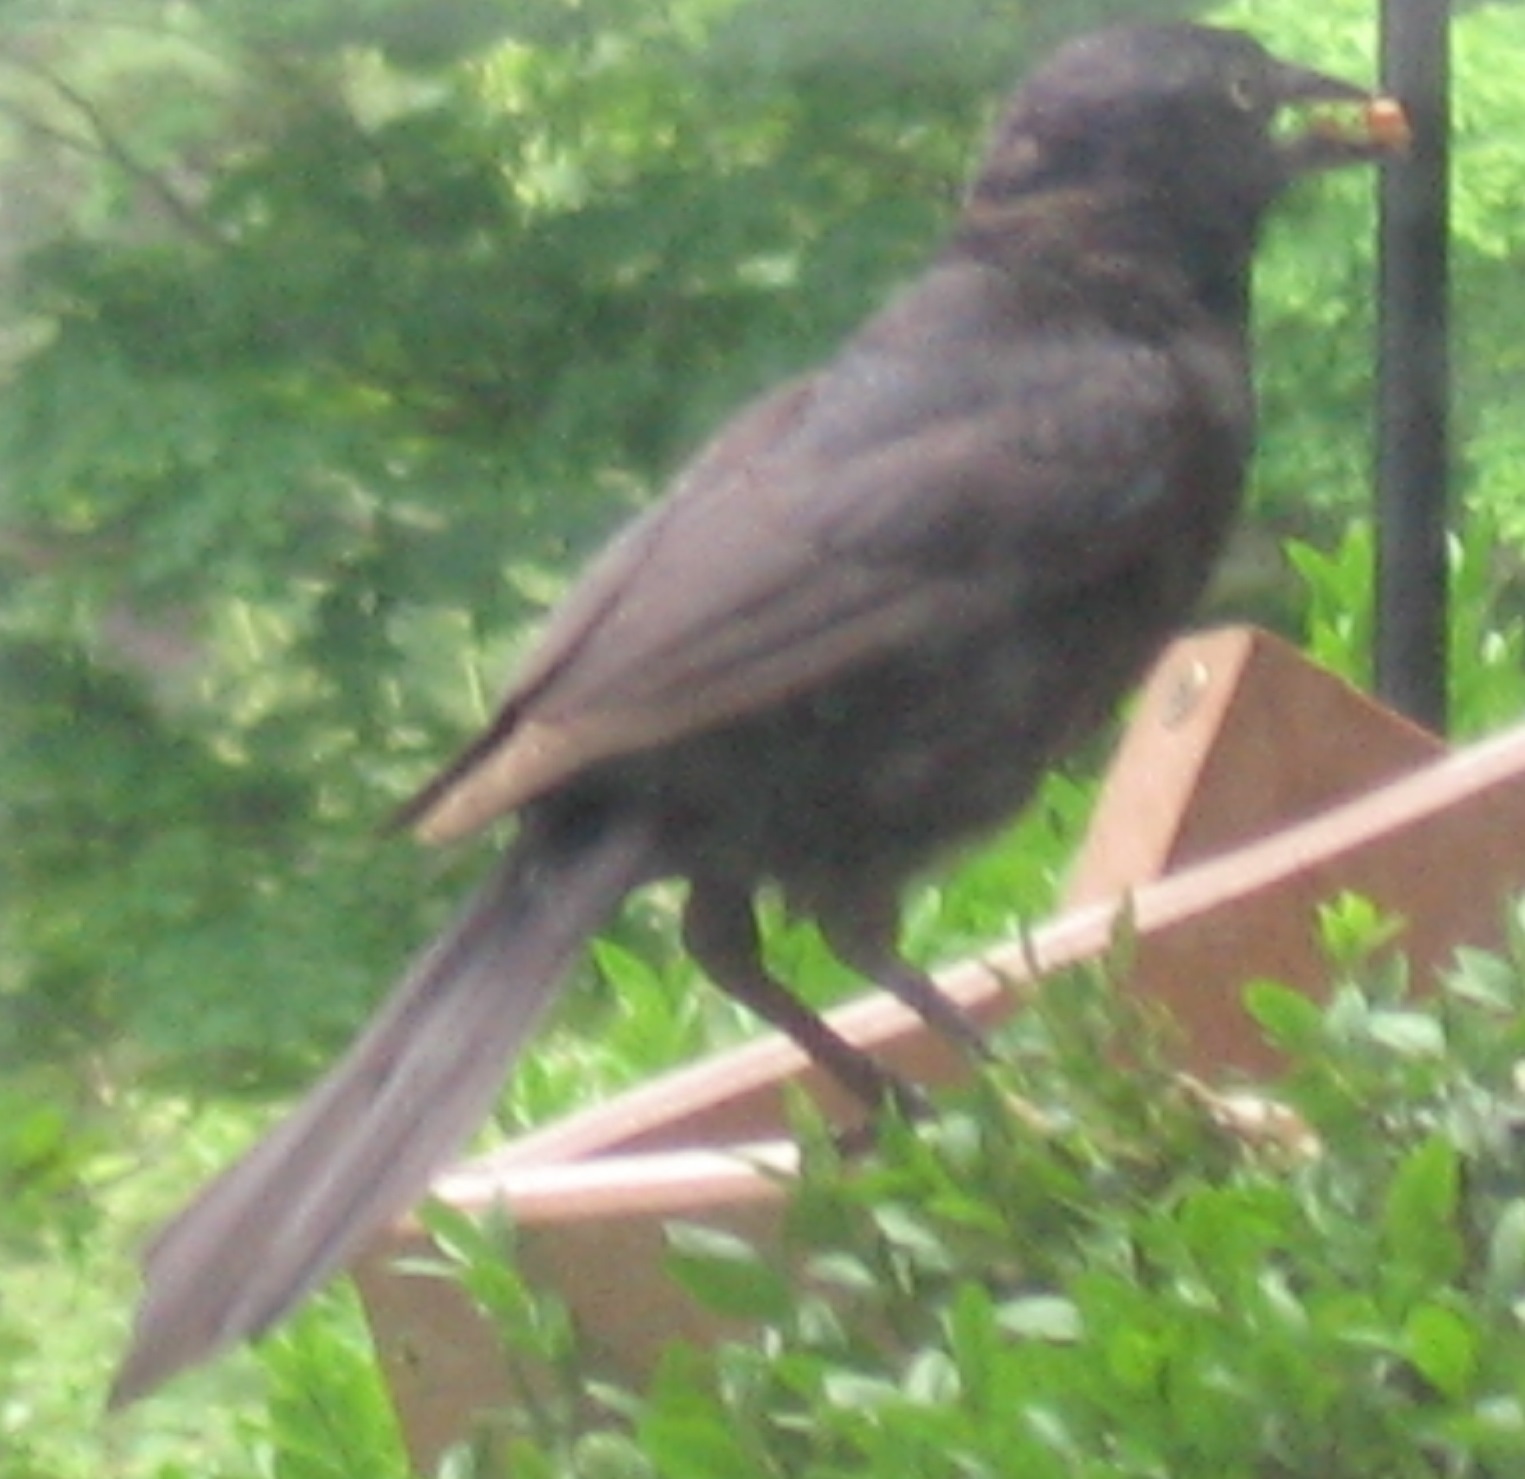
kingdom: Animalia
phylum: Chordata
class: Aves
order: Passeriformes
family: Icteridae
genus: Quiscalus
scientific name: Quiscalus quiscula
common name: Common grackle
